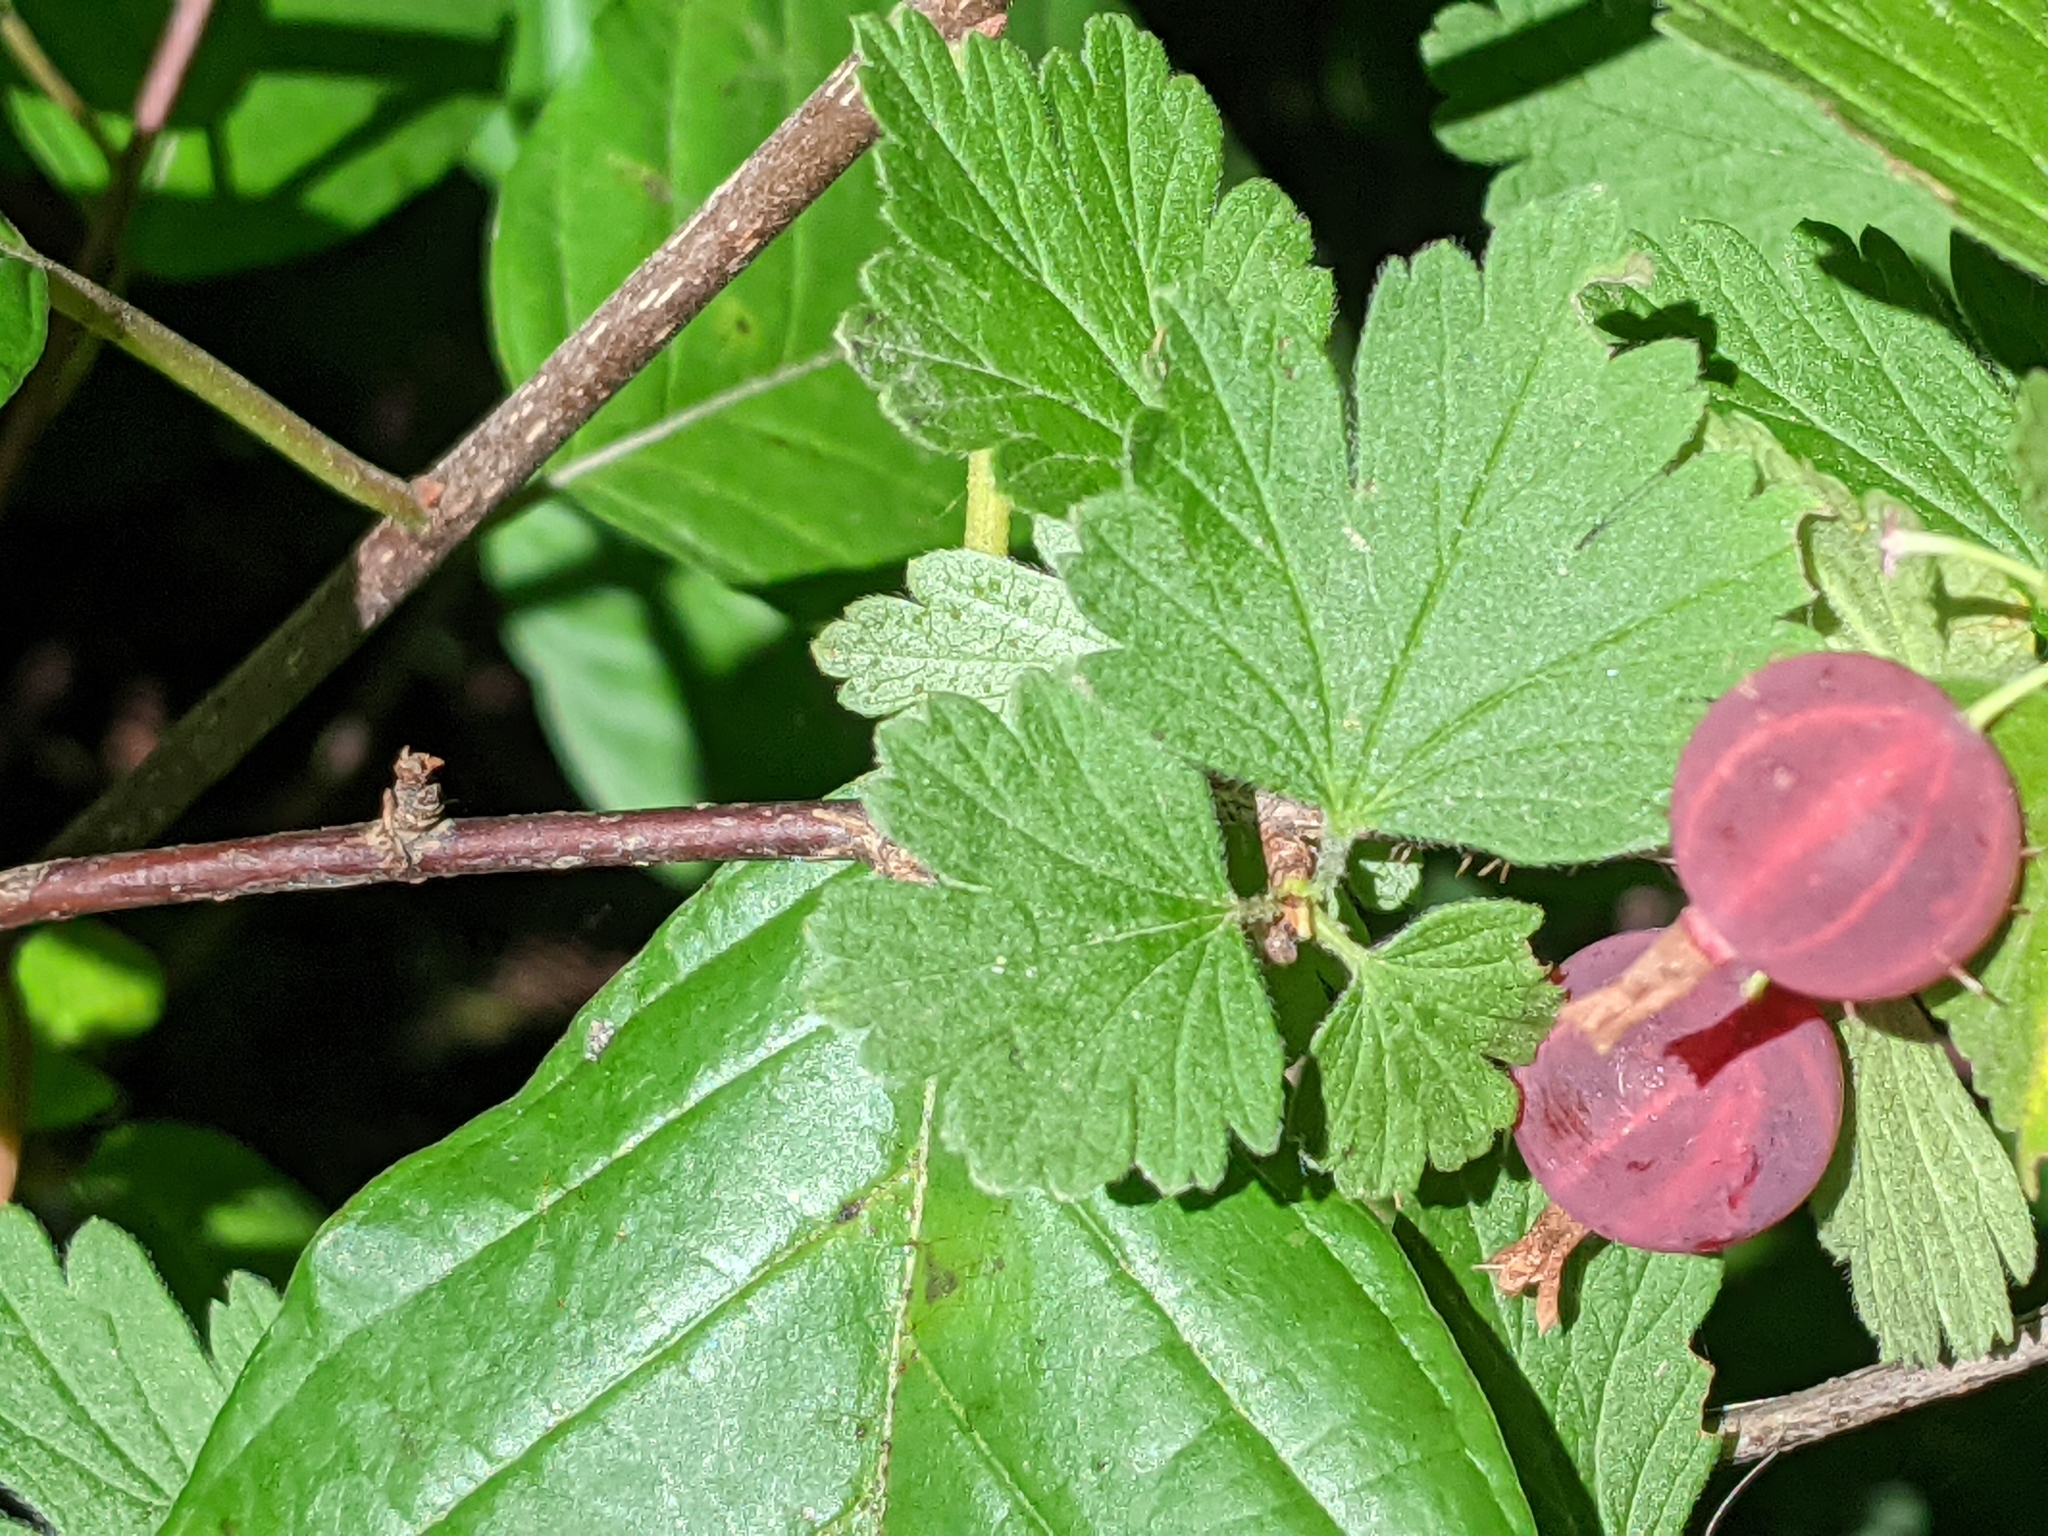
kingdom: Plantae
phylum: Tracheophyta
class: Magnoliopsida
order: Saxifragales
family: Grossulariaceae
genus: Ribes
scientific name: Ribes uva-crispa
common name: Gooseberry
